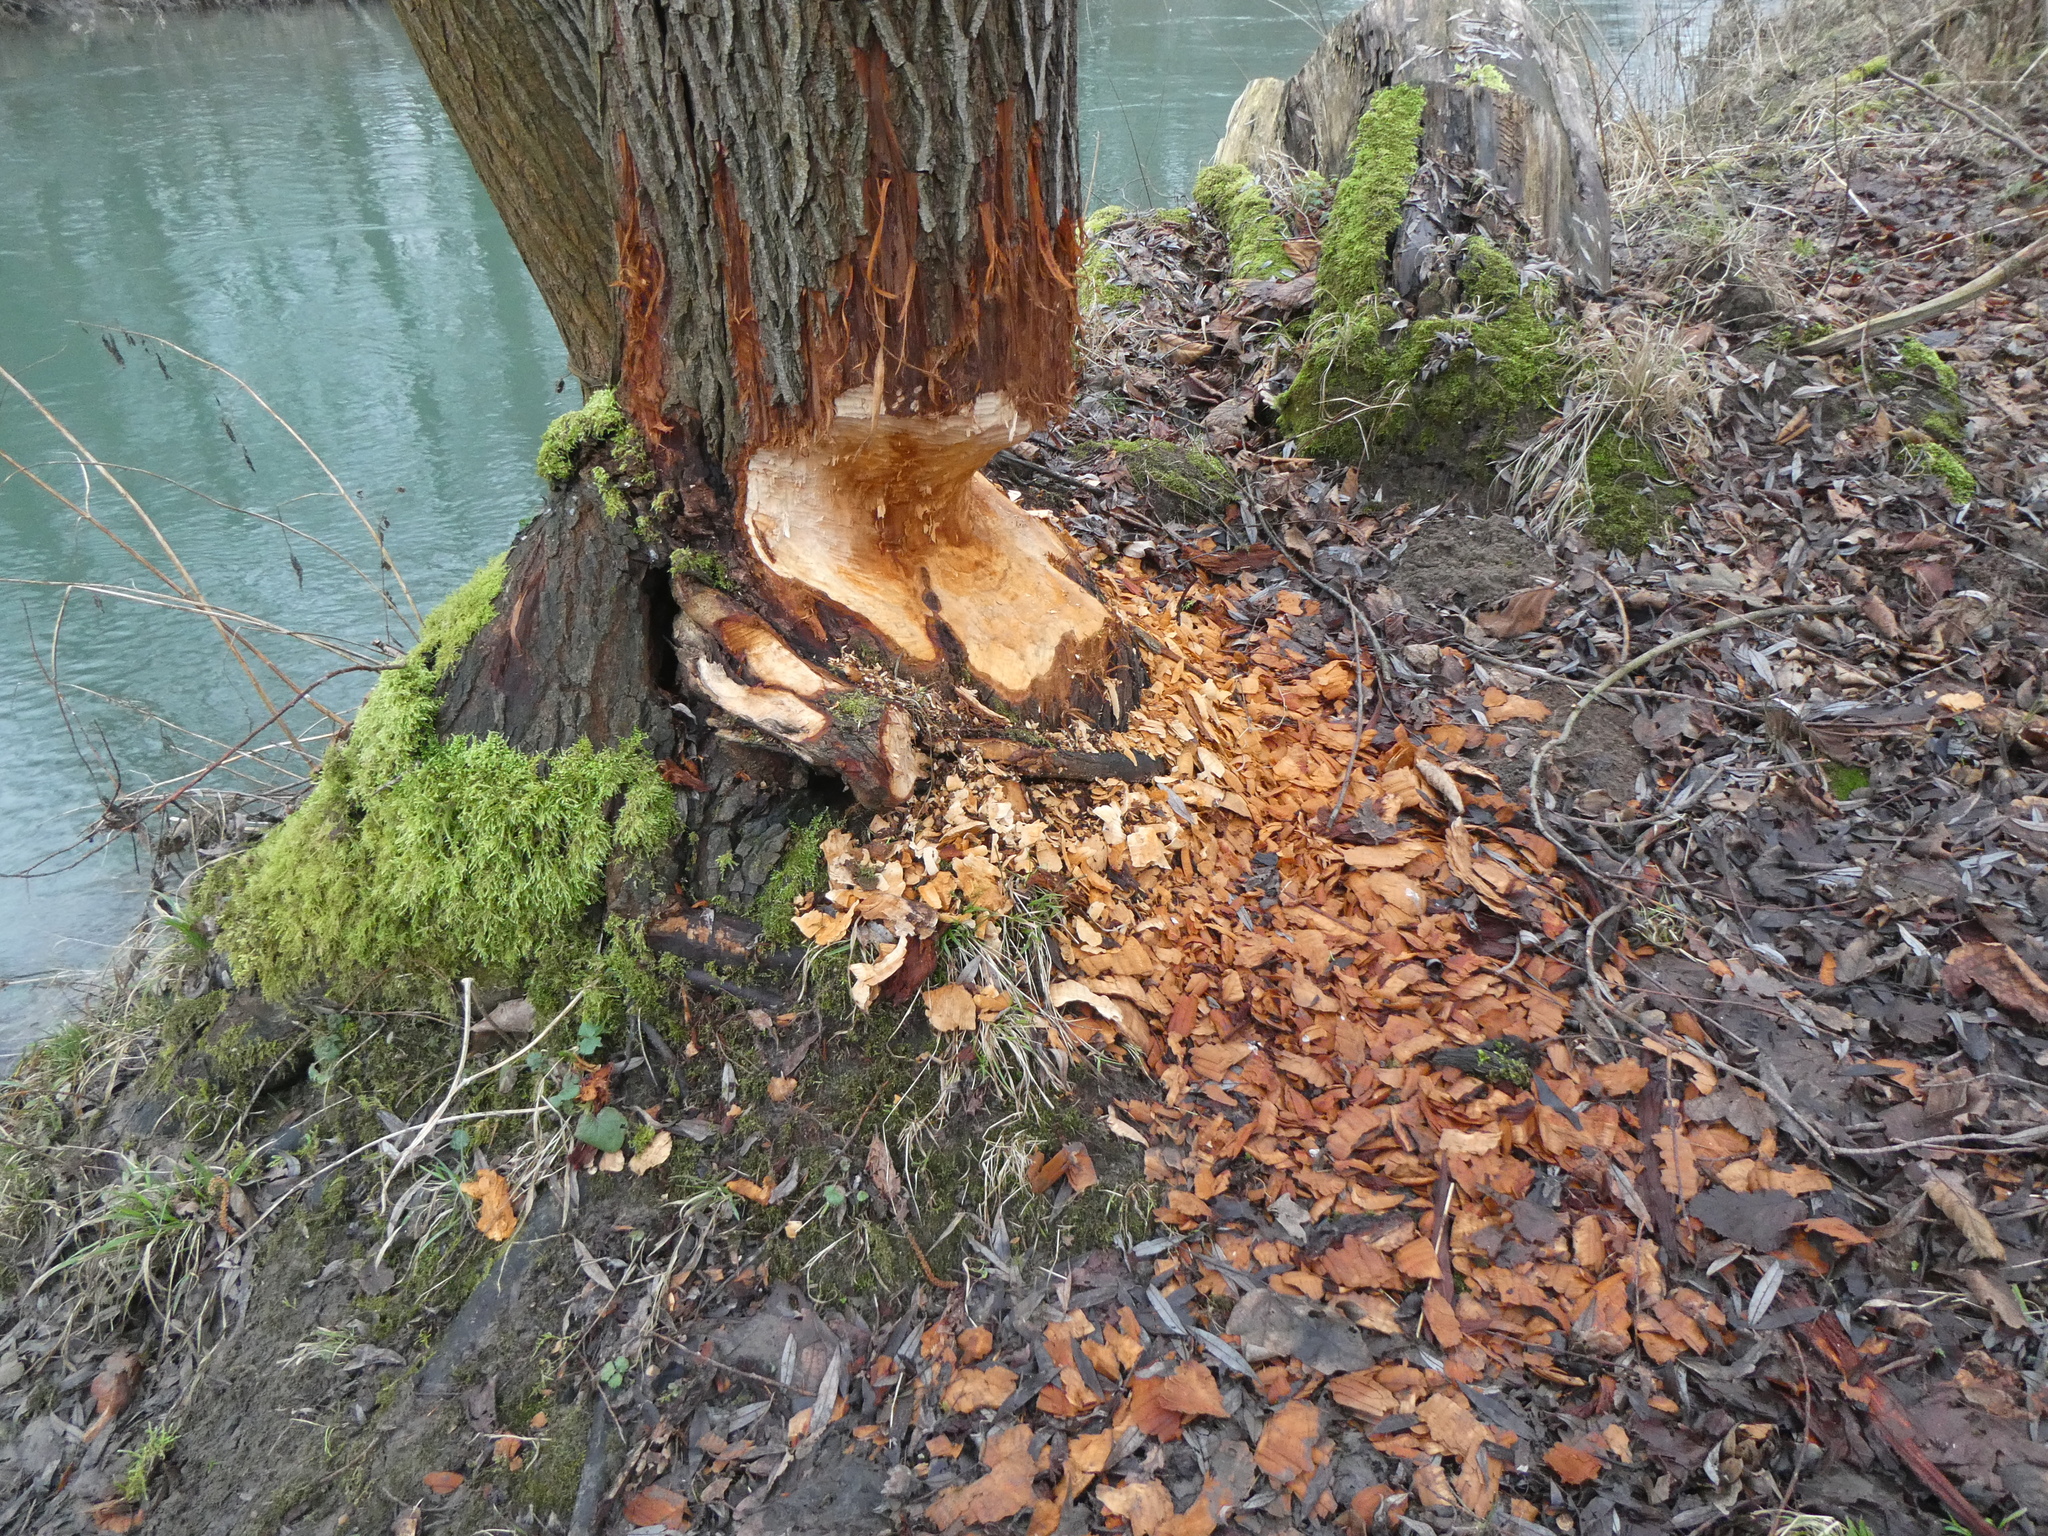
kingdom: Animalia
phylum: Chordata
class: Mammalia
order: Rodentia
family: Castoridae
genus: Castor
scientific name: Castor fiber
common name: Eurasian beaver
